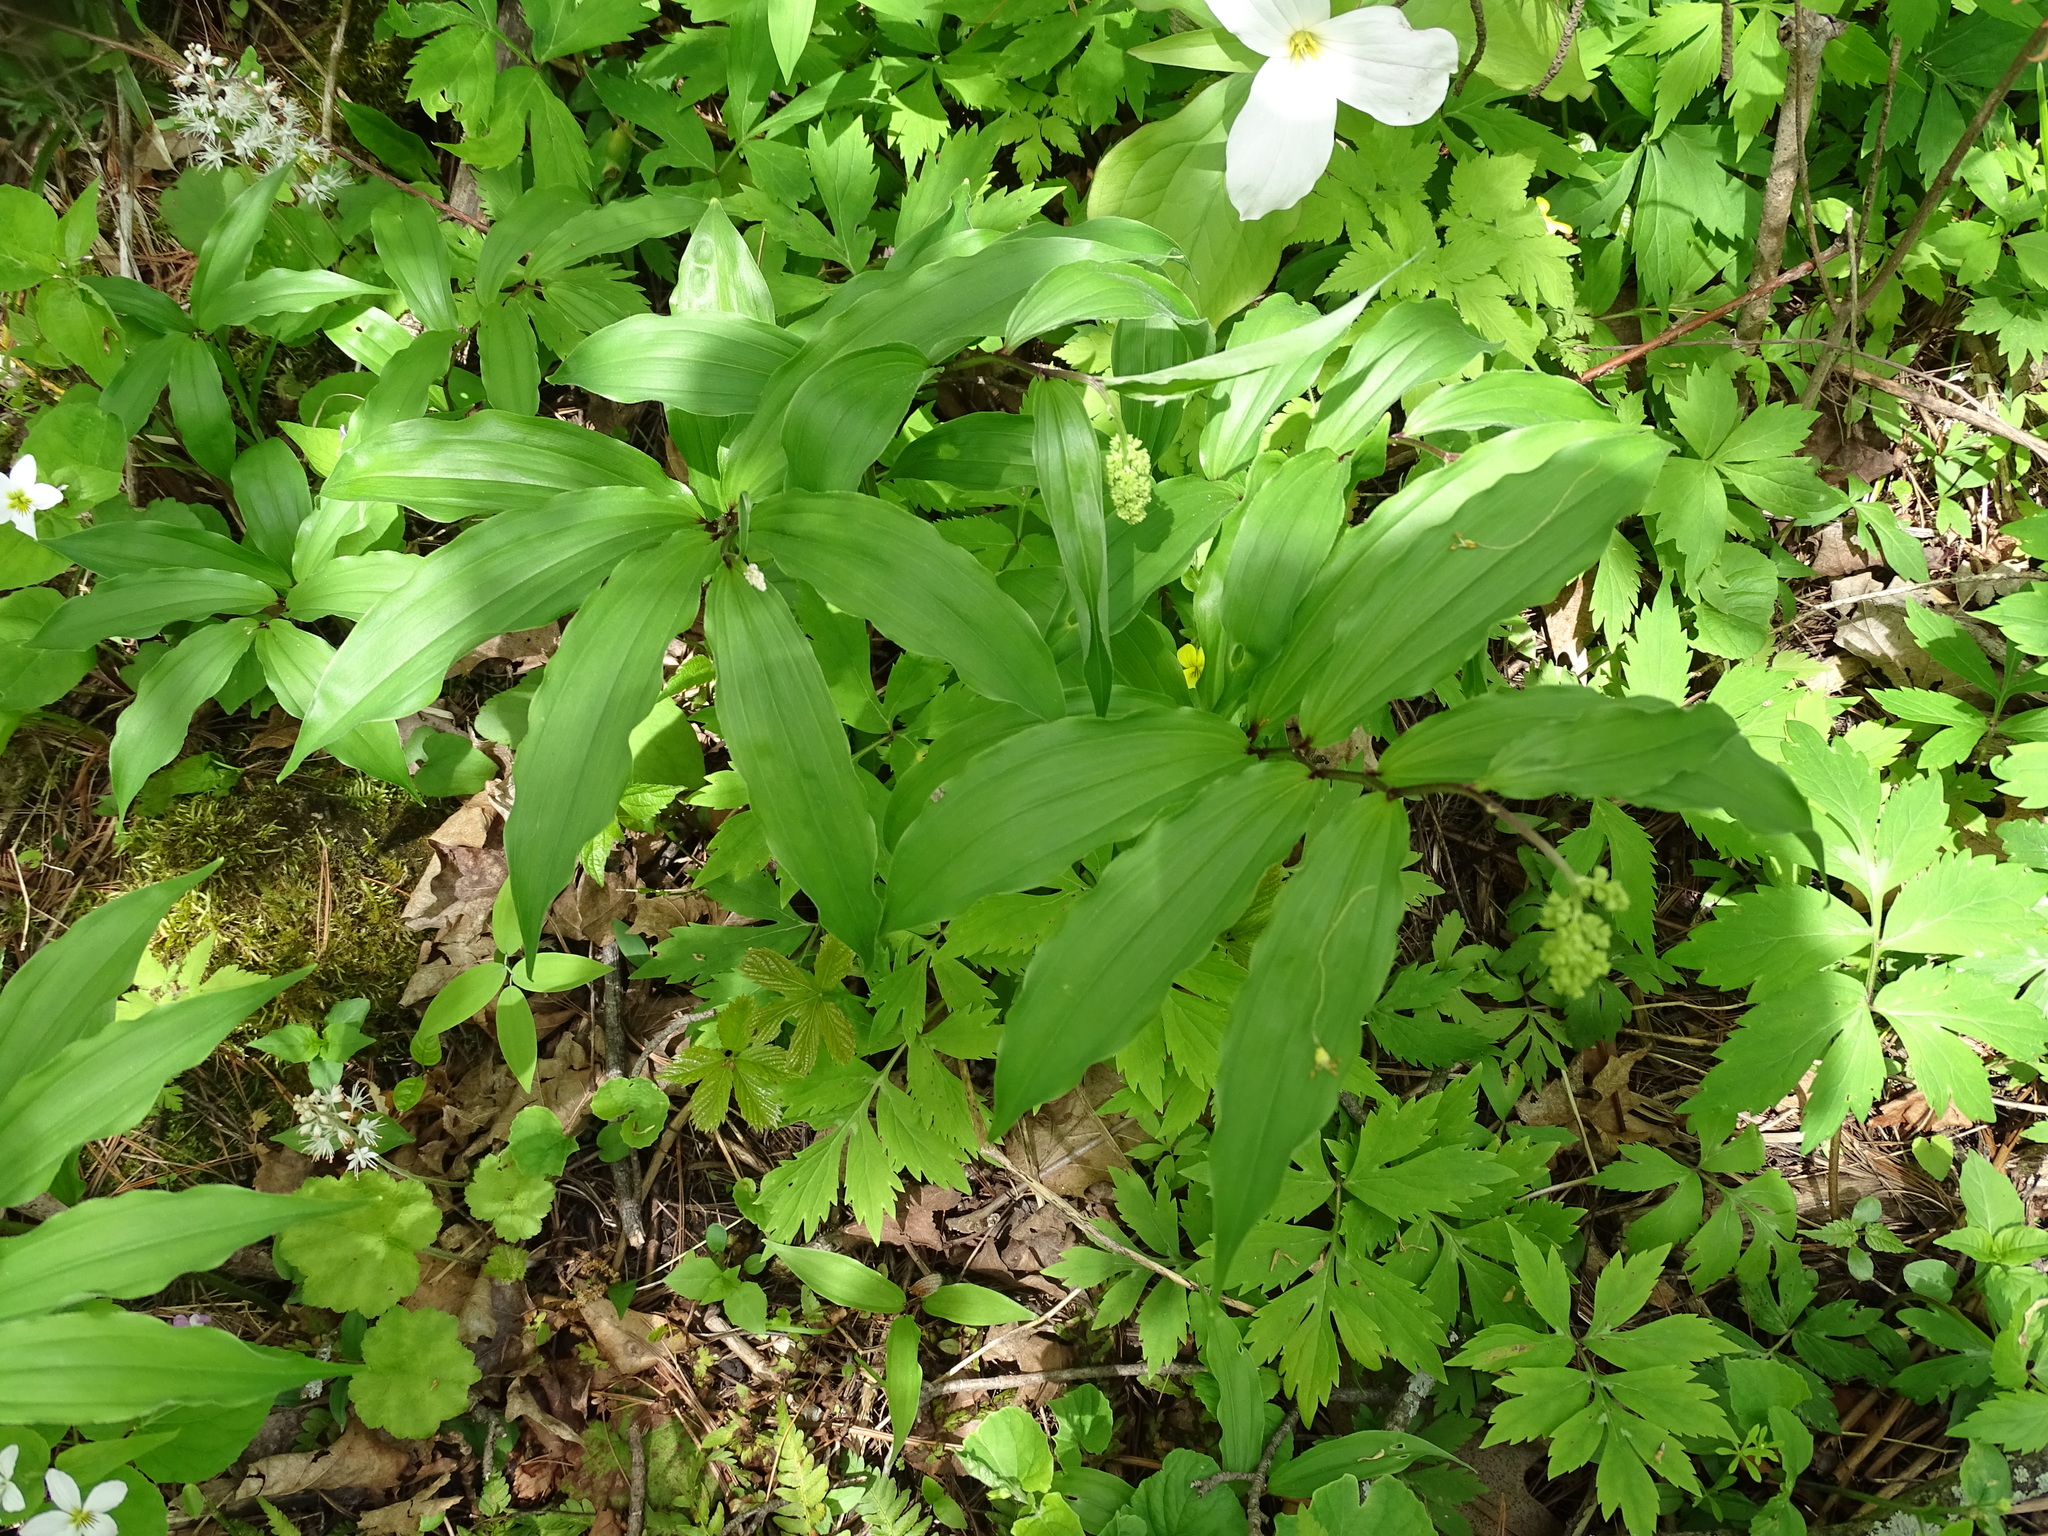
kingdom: Plantae
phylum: Tracheophyta
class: Liliopsida
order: Asparagales
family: Asparagaceae
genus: Maianthemum
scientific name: Maianthemum racemosum
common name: False spikenard
